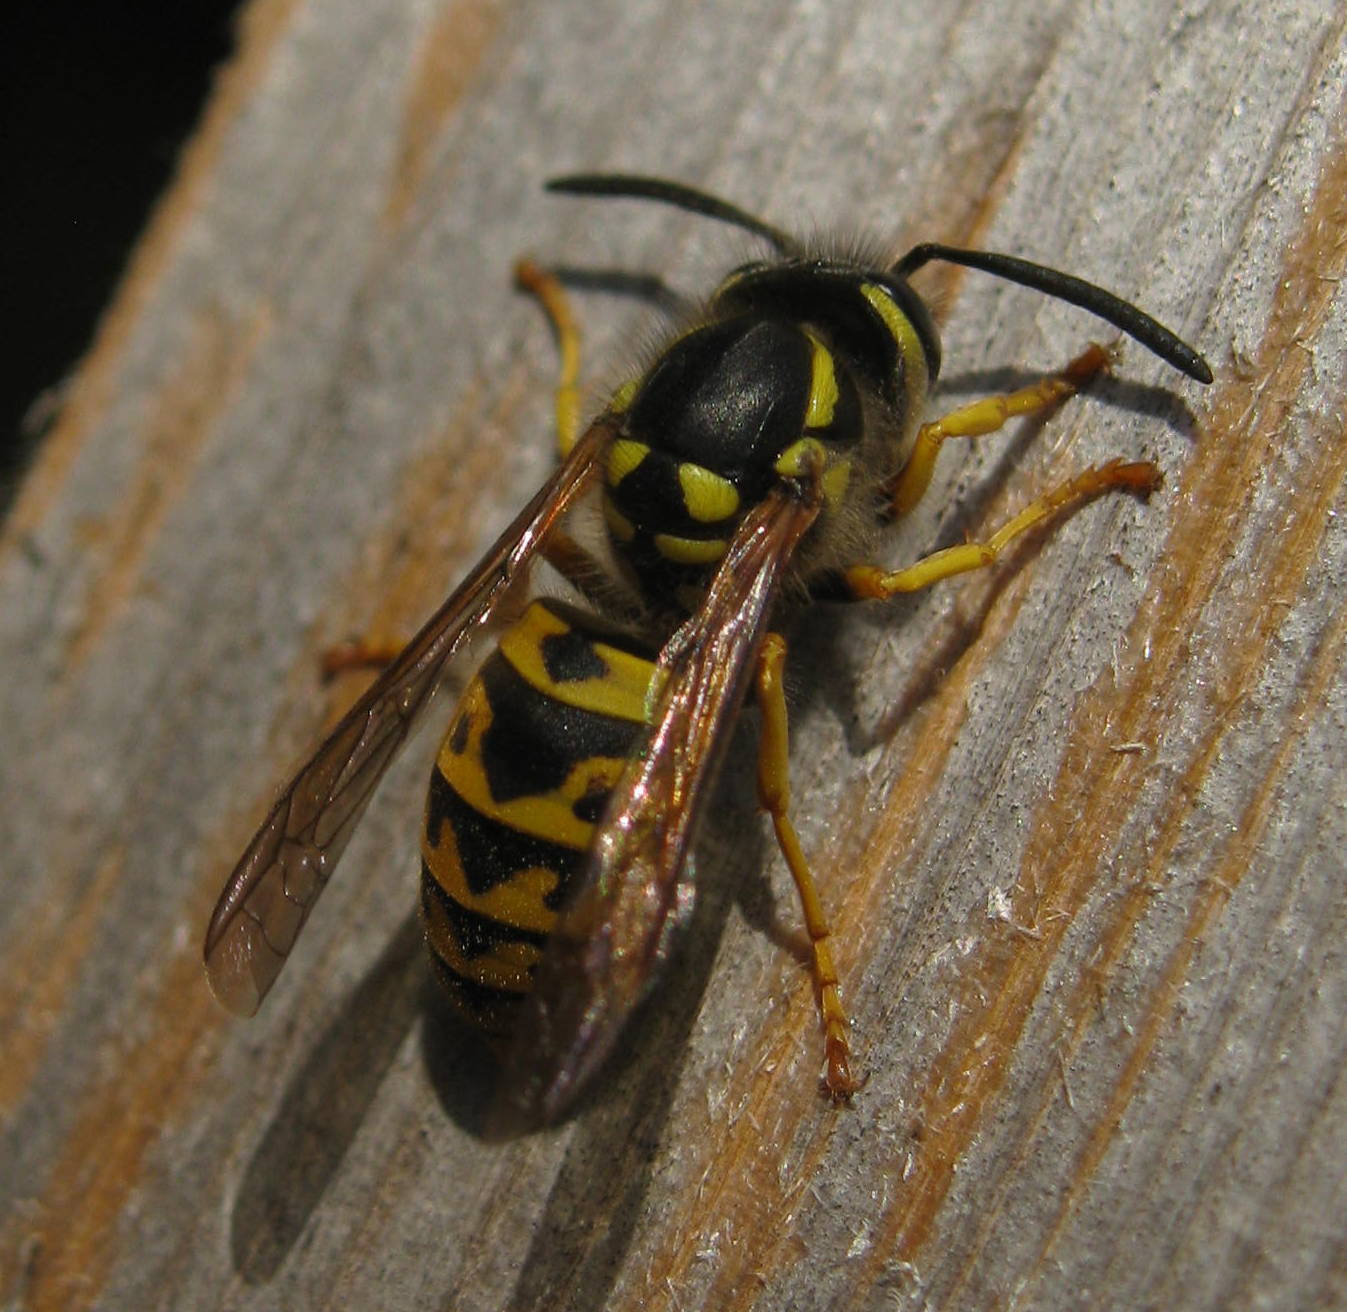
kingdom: Animalia
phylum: Arthropoda
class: Insecta
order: Hymenoptera
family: Vespidae
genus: Vespula
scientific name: Vespula germanica
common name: German wasp
